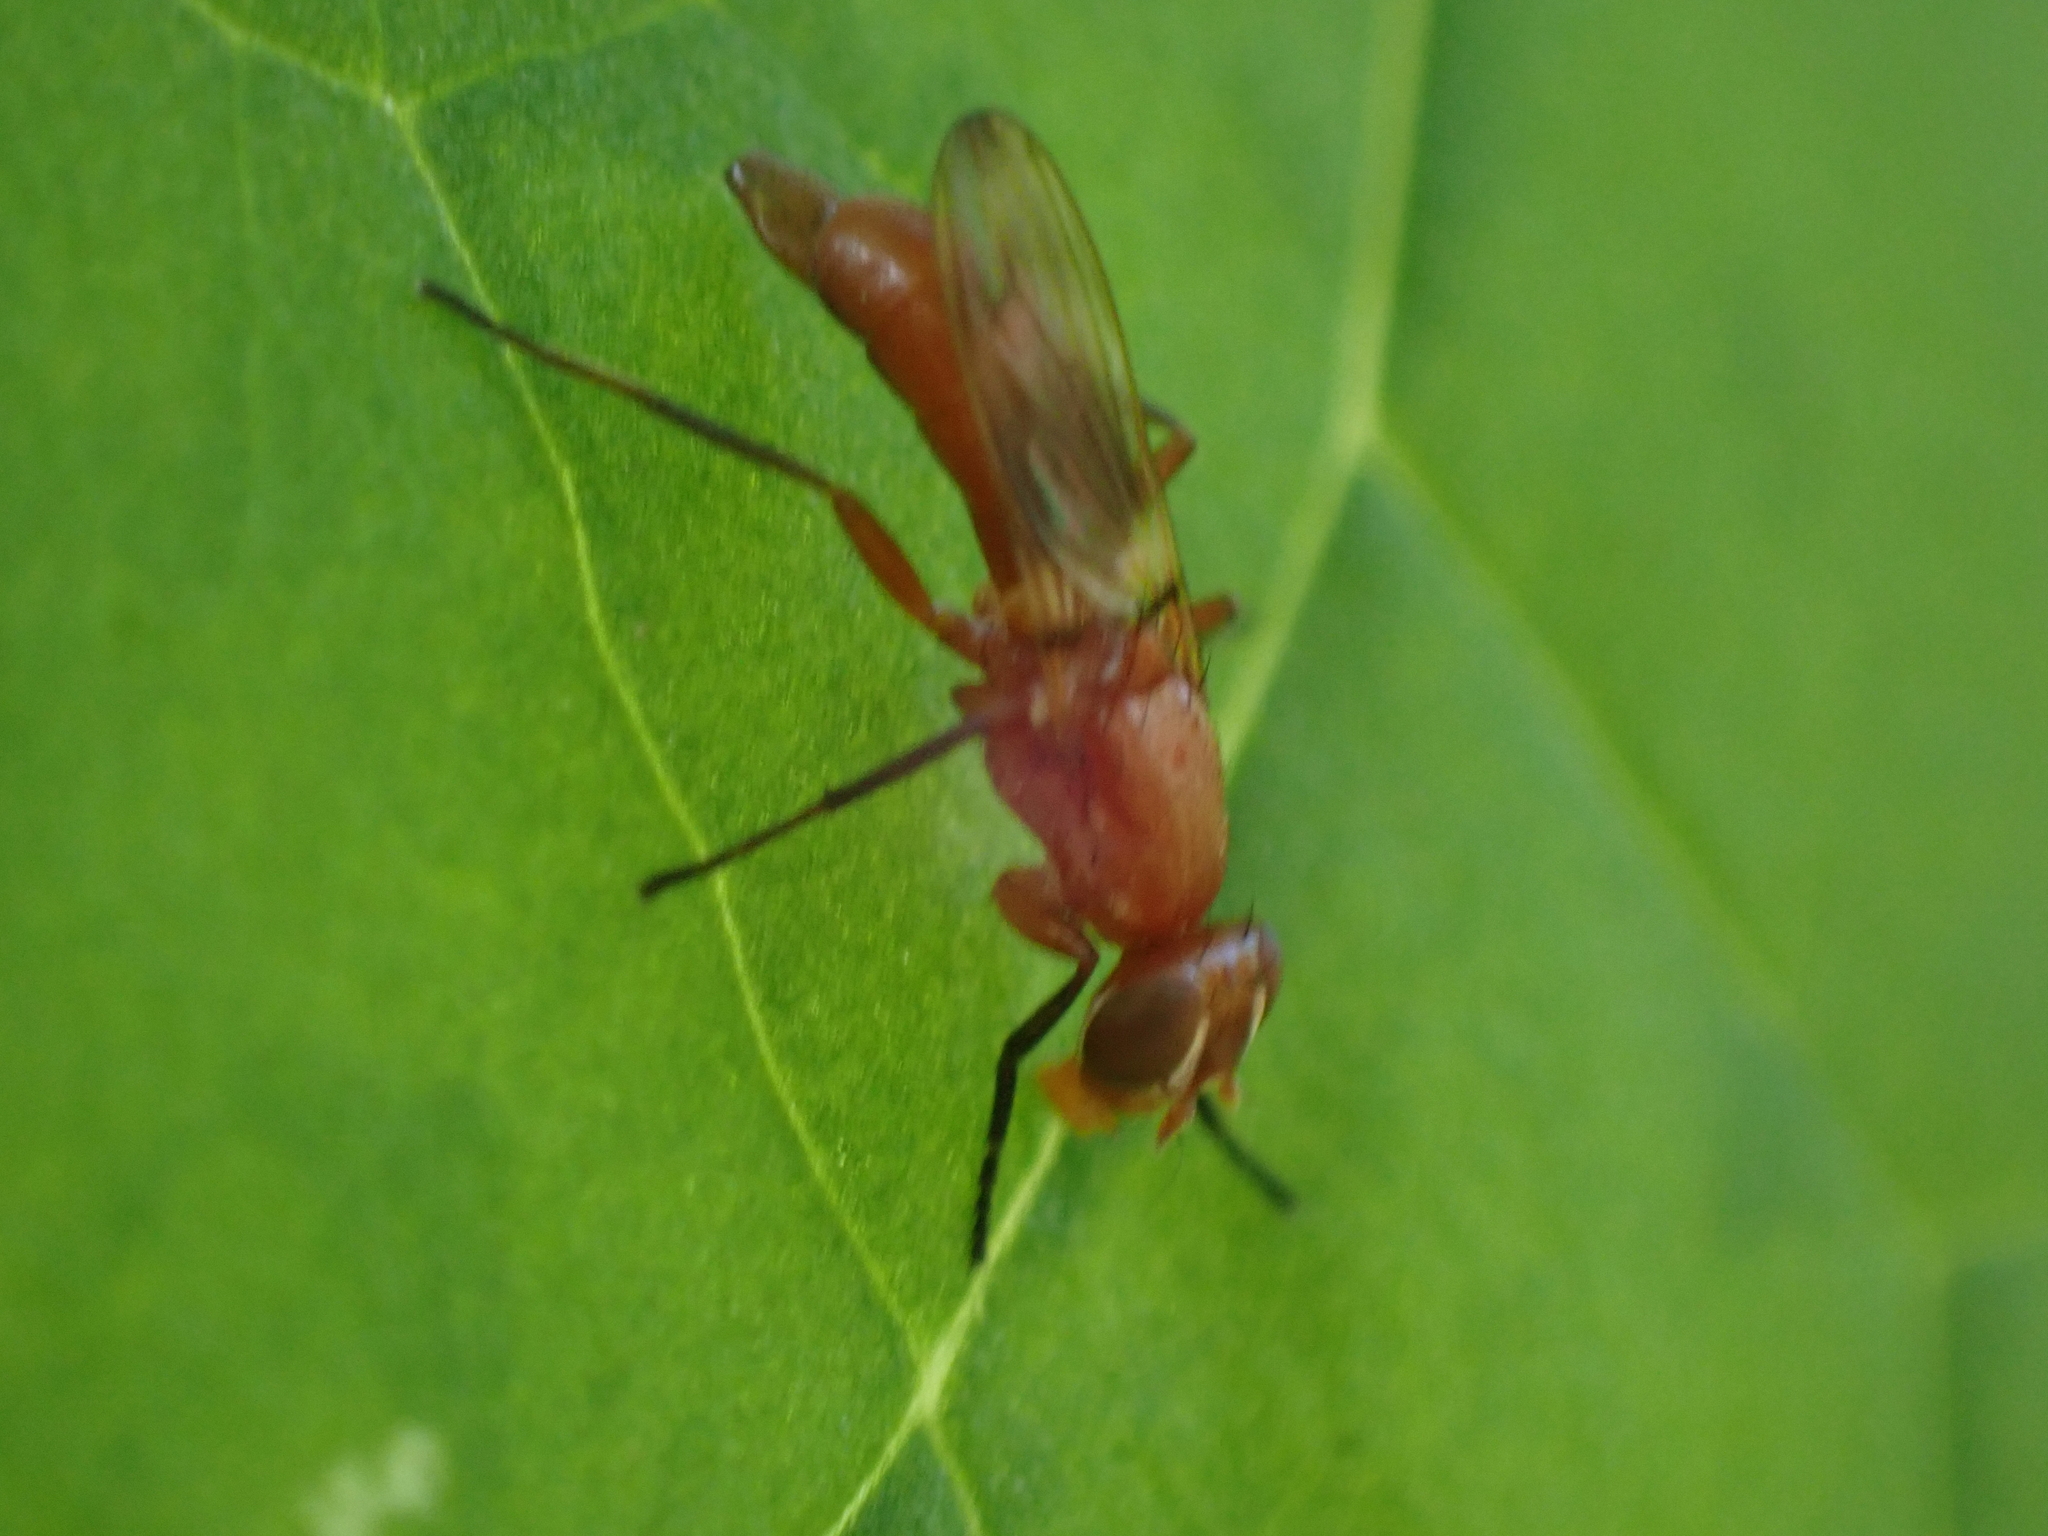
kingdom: Animalia
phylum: Arthropoda
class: Insecta
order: Diptera
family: Ulidiidae
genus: Zacompsia
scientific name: Zacompsia fulva
